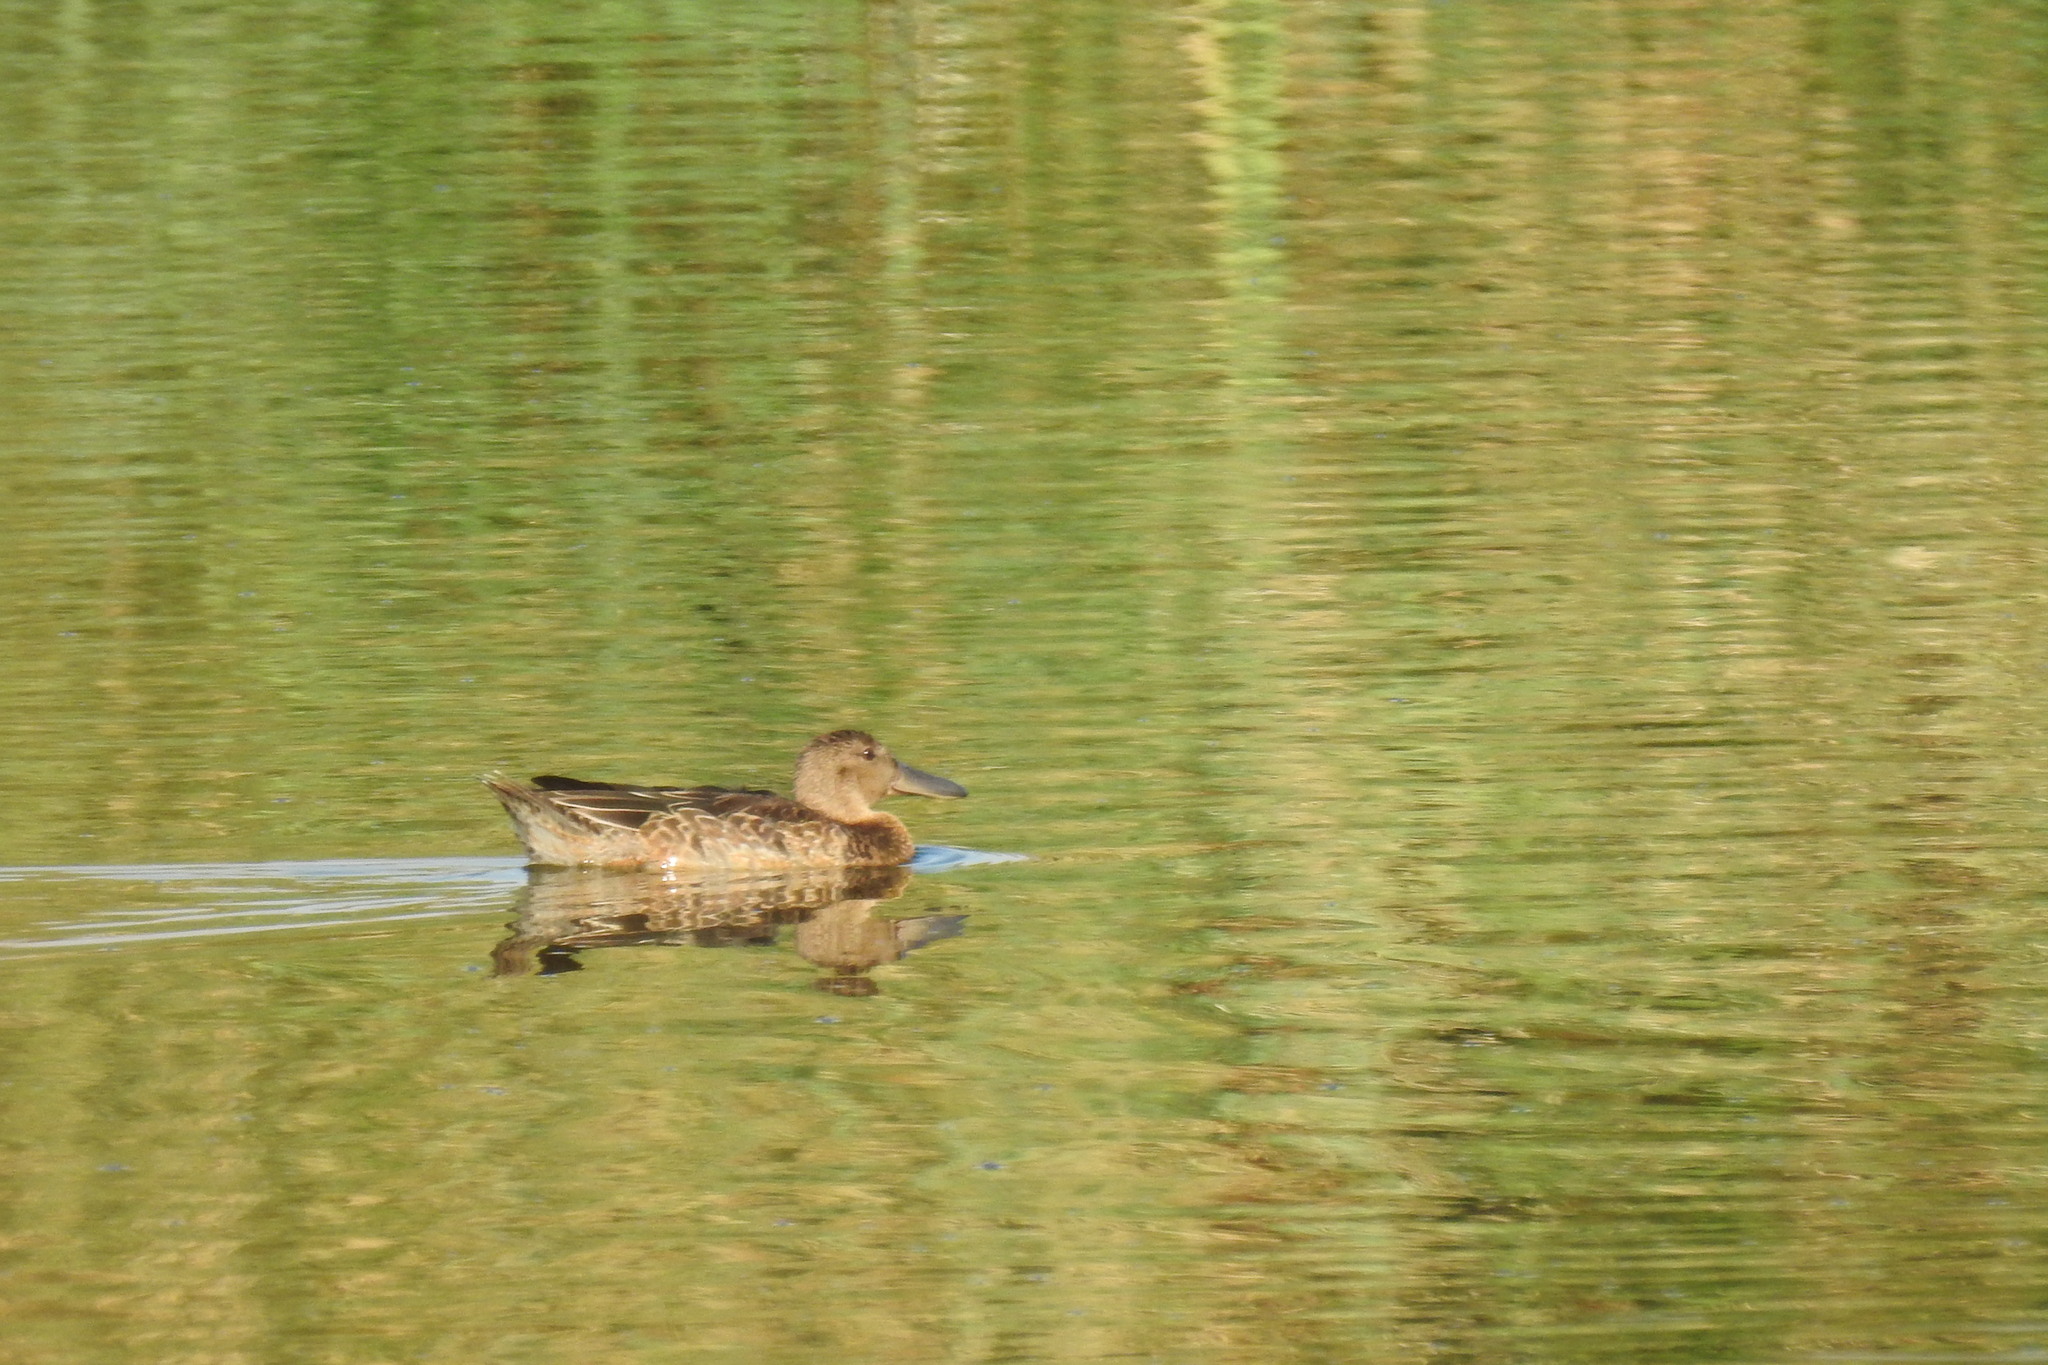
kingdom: Animalia
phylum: Chordata
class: Aves
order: Anseriformes
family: Anatidae
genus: Spatula
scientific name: Spatula cyanoptera
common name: Cinnamon teal
